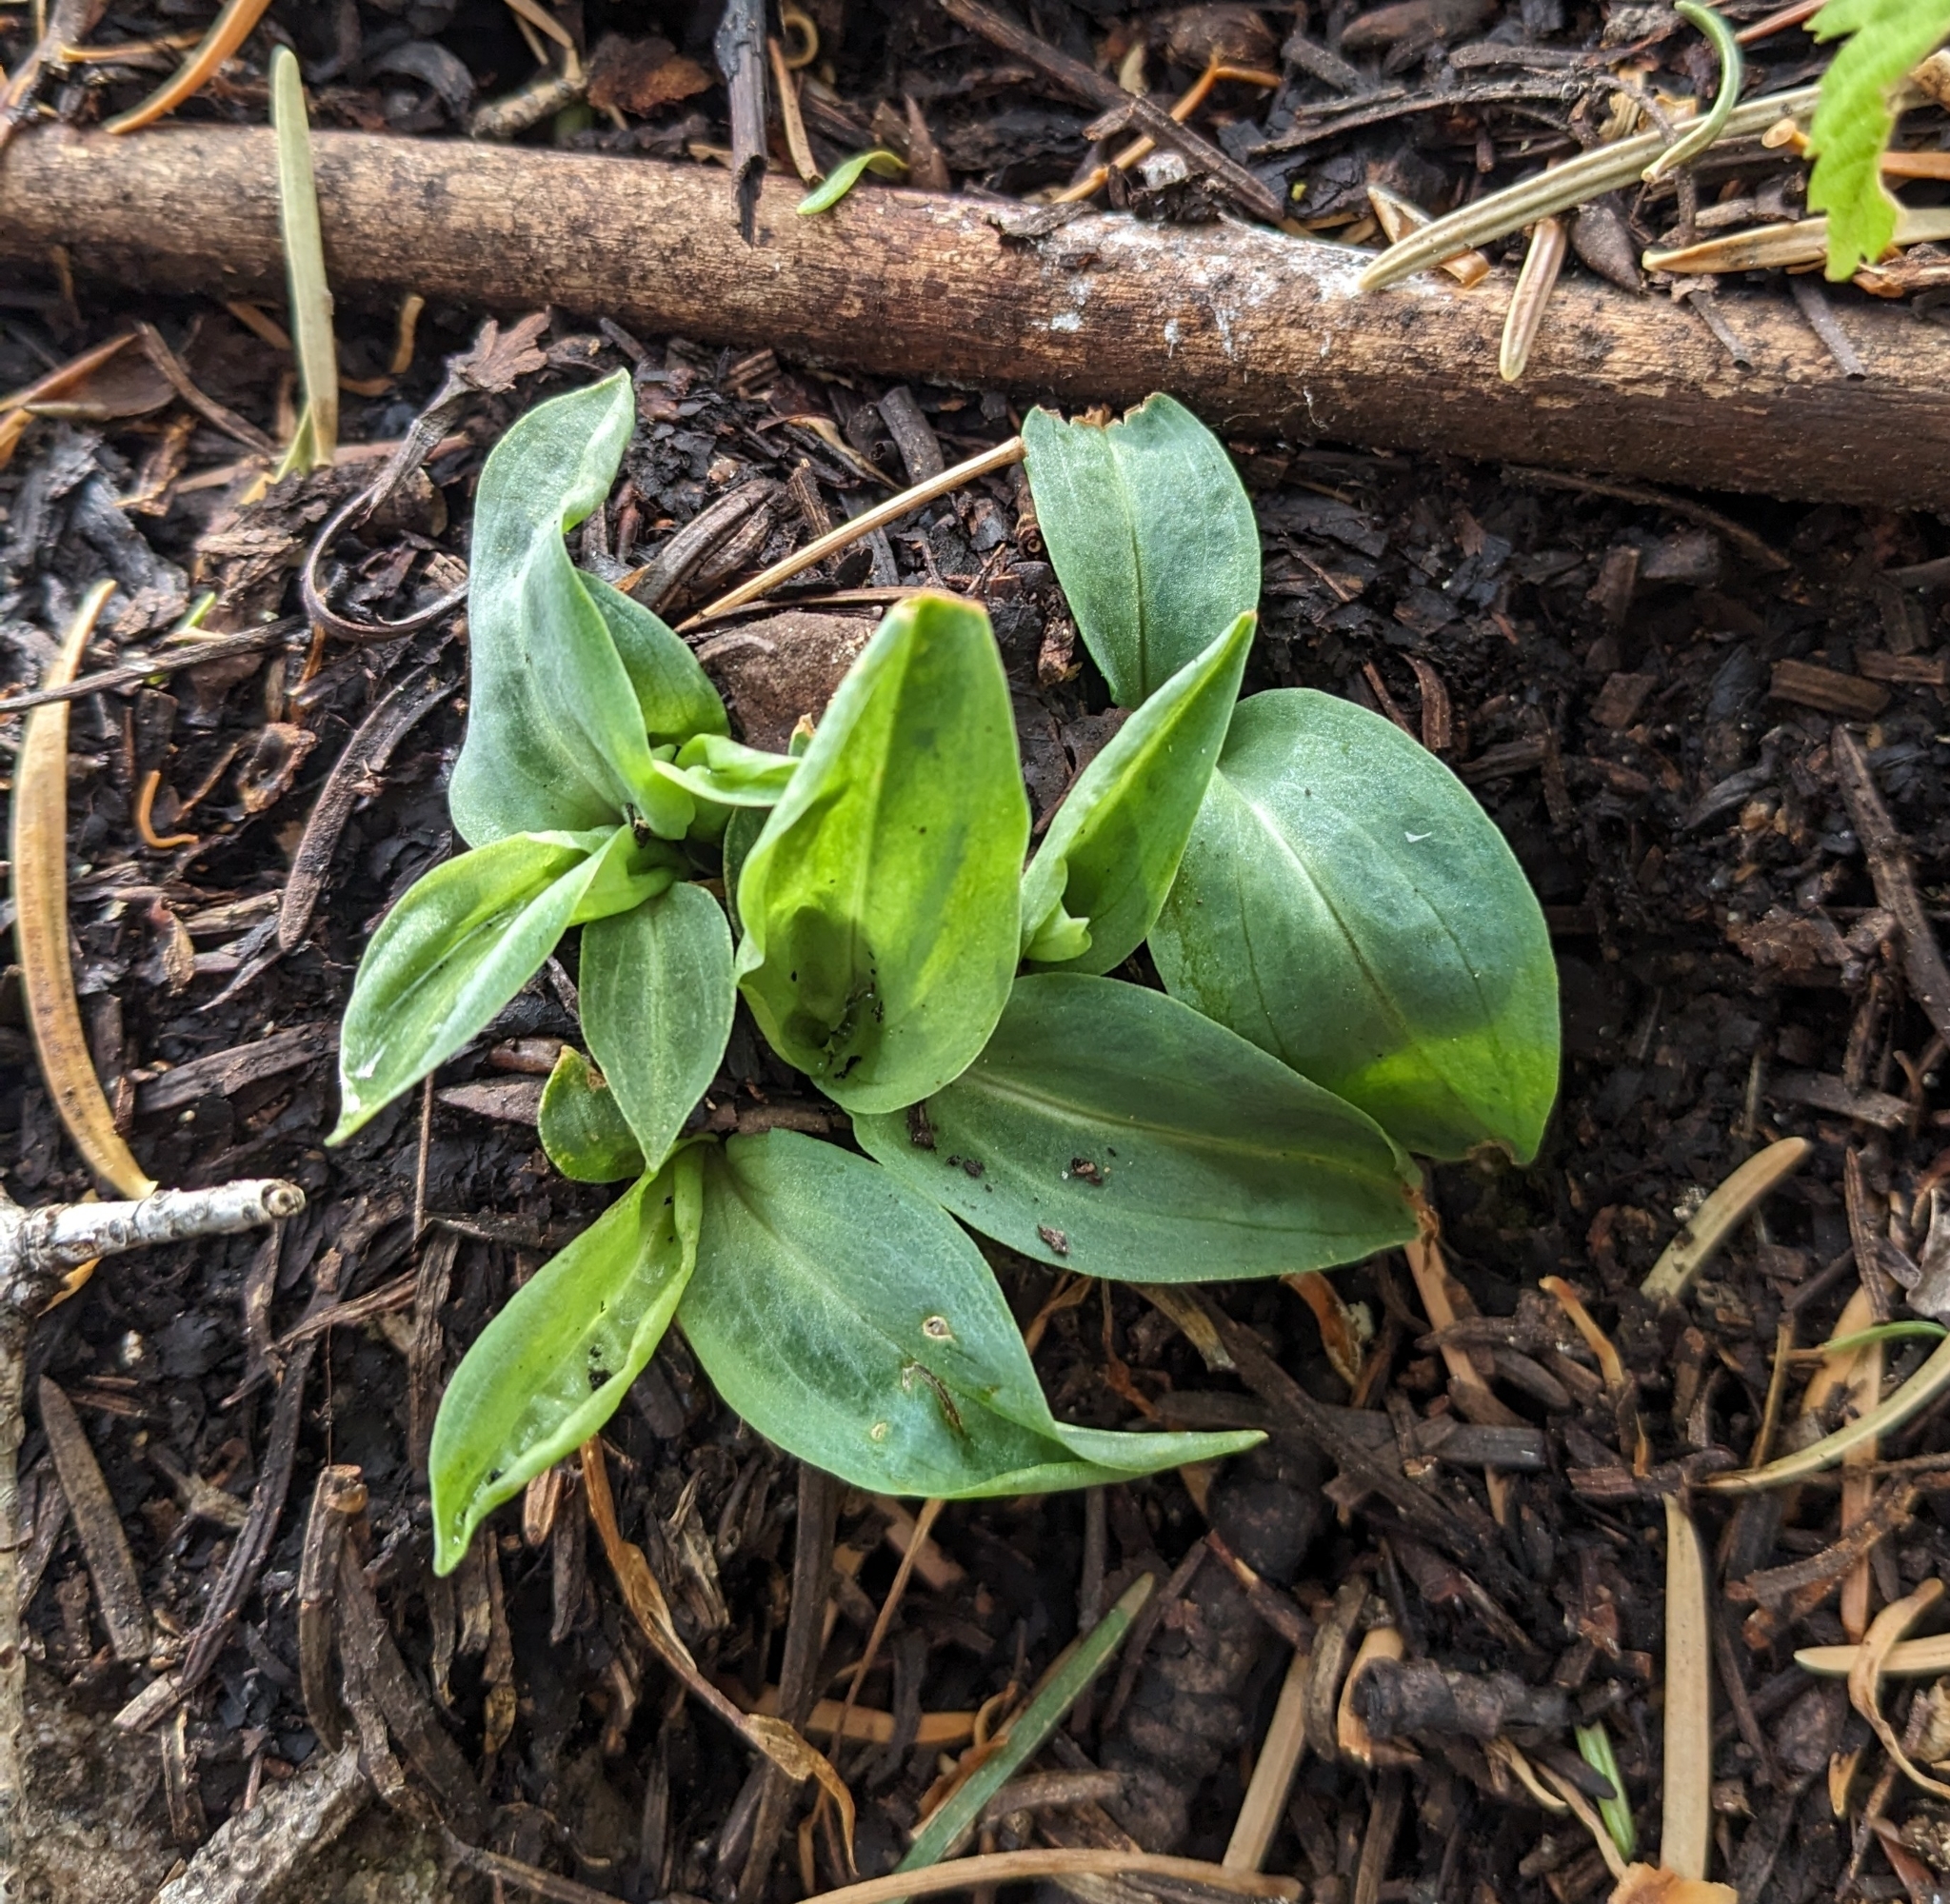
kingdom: Plantae
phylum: Tracheophyta
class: Liliopsida
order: Asparagales
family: Orchidaceae
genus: Schiedeella
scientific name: Schiedeella arizonica
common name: Parasitic lady's tresses
